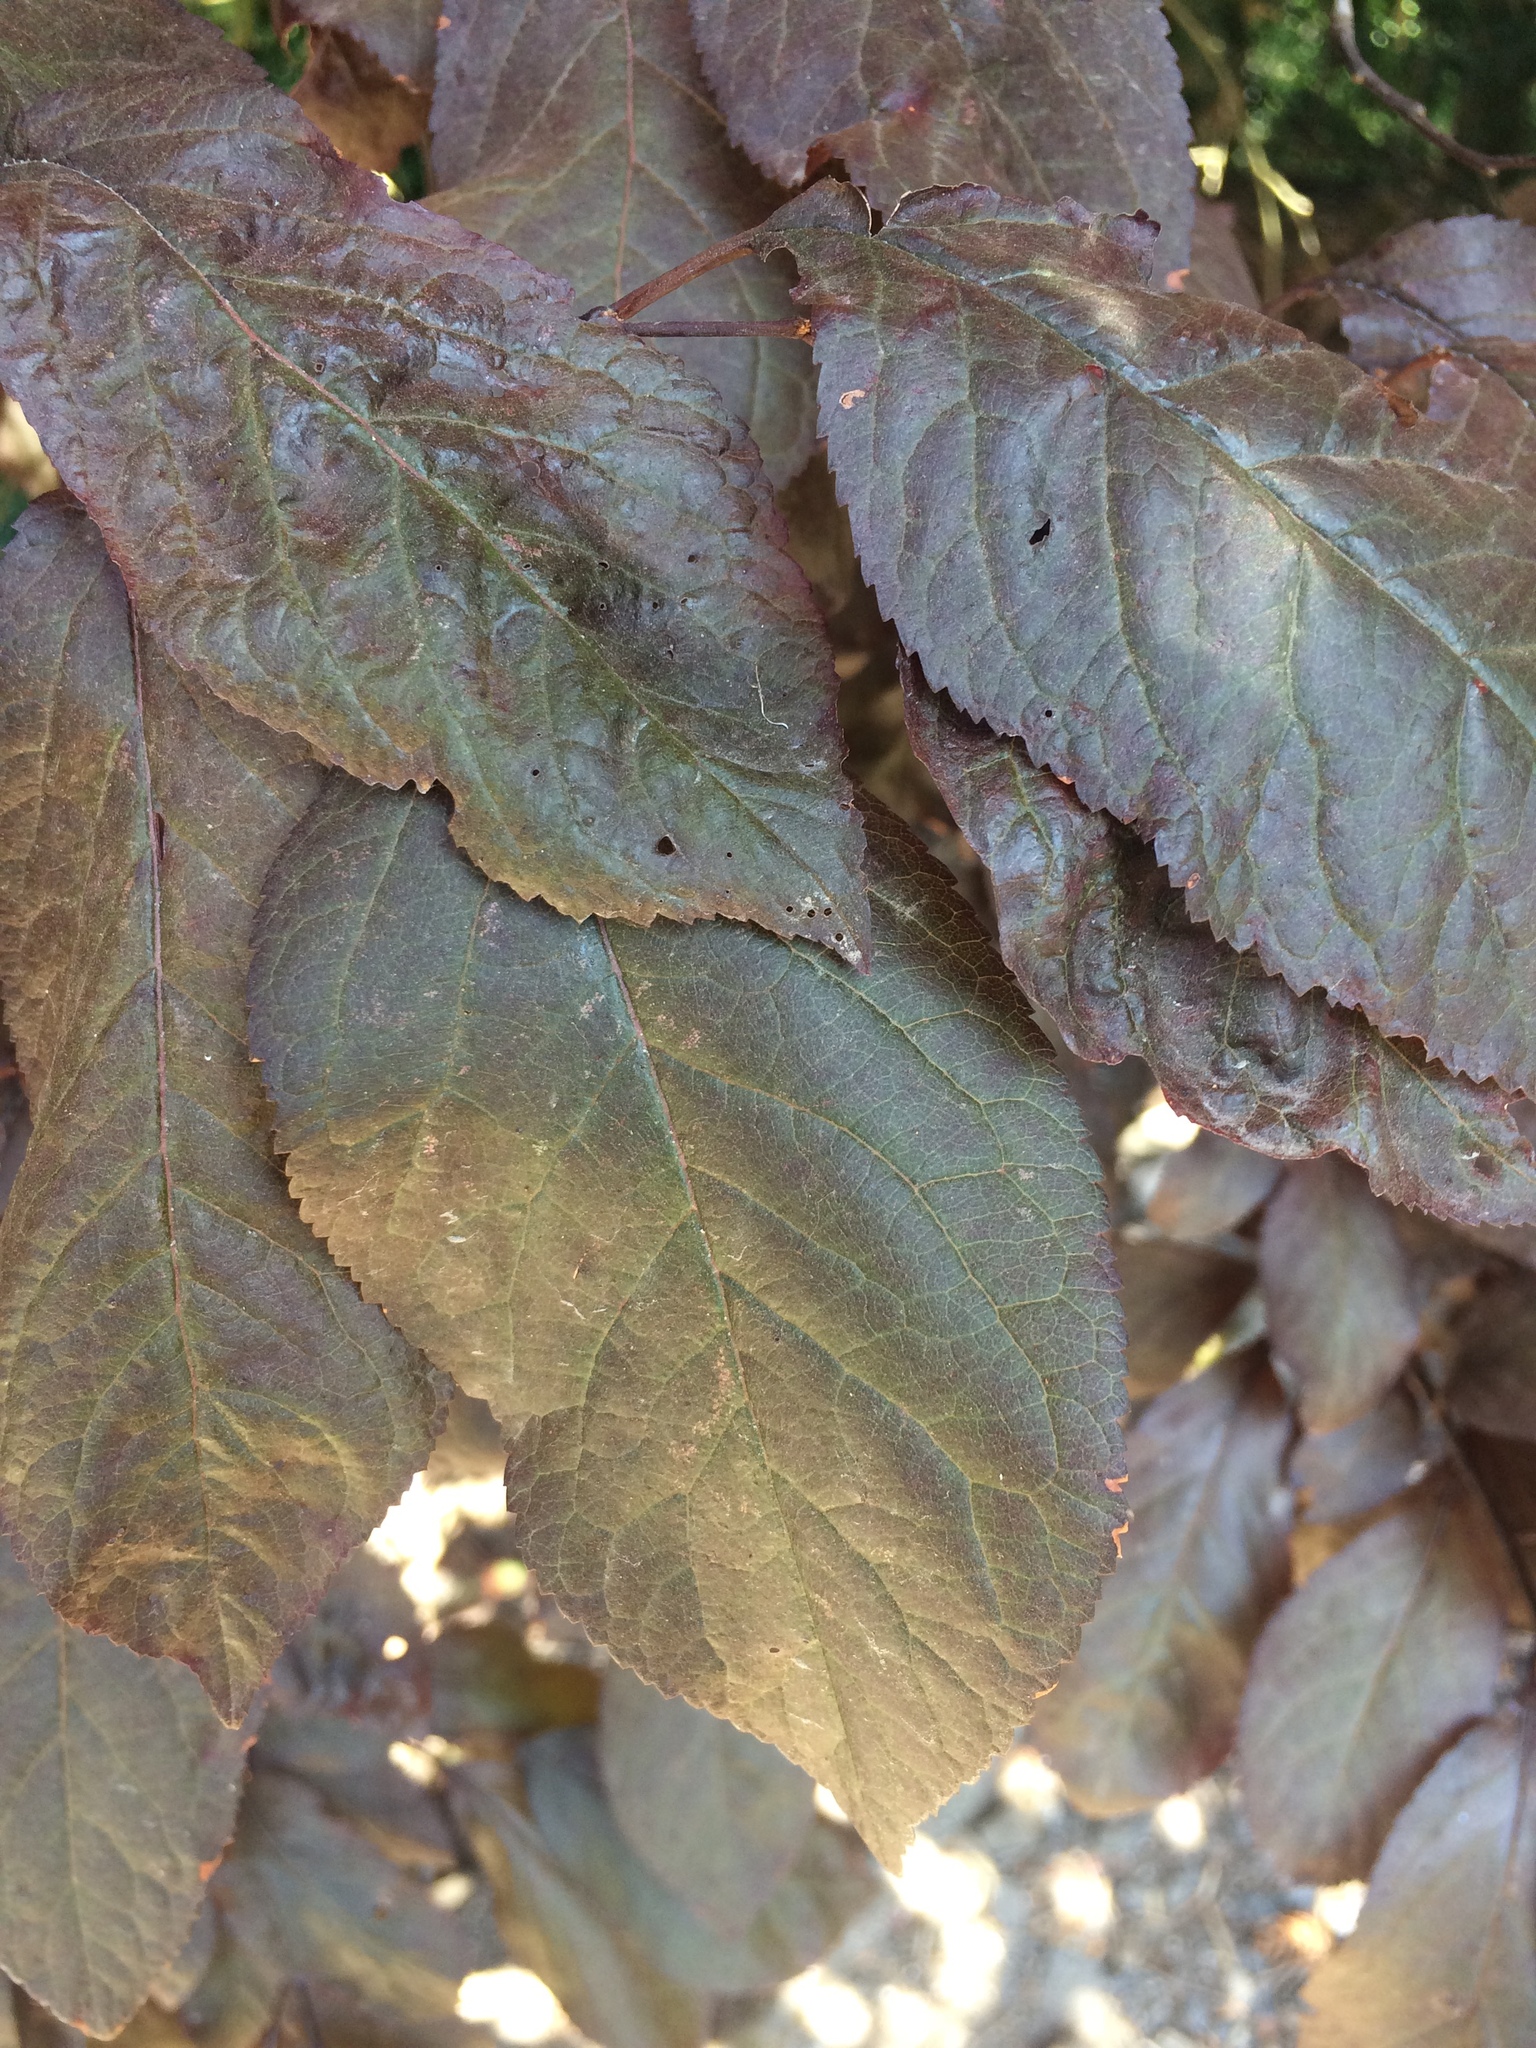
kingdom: Plantae
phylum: Tracheophyta
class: Magnoliopsida
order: Rosales
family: Rosaceae
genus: Prunus
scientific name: Prunus cerasifera
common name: Cherry plum
